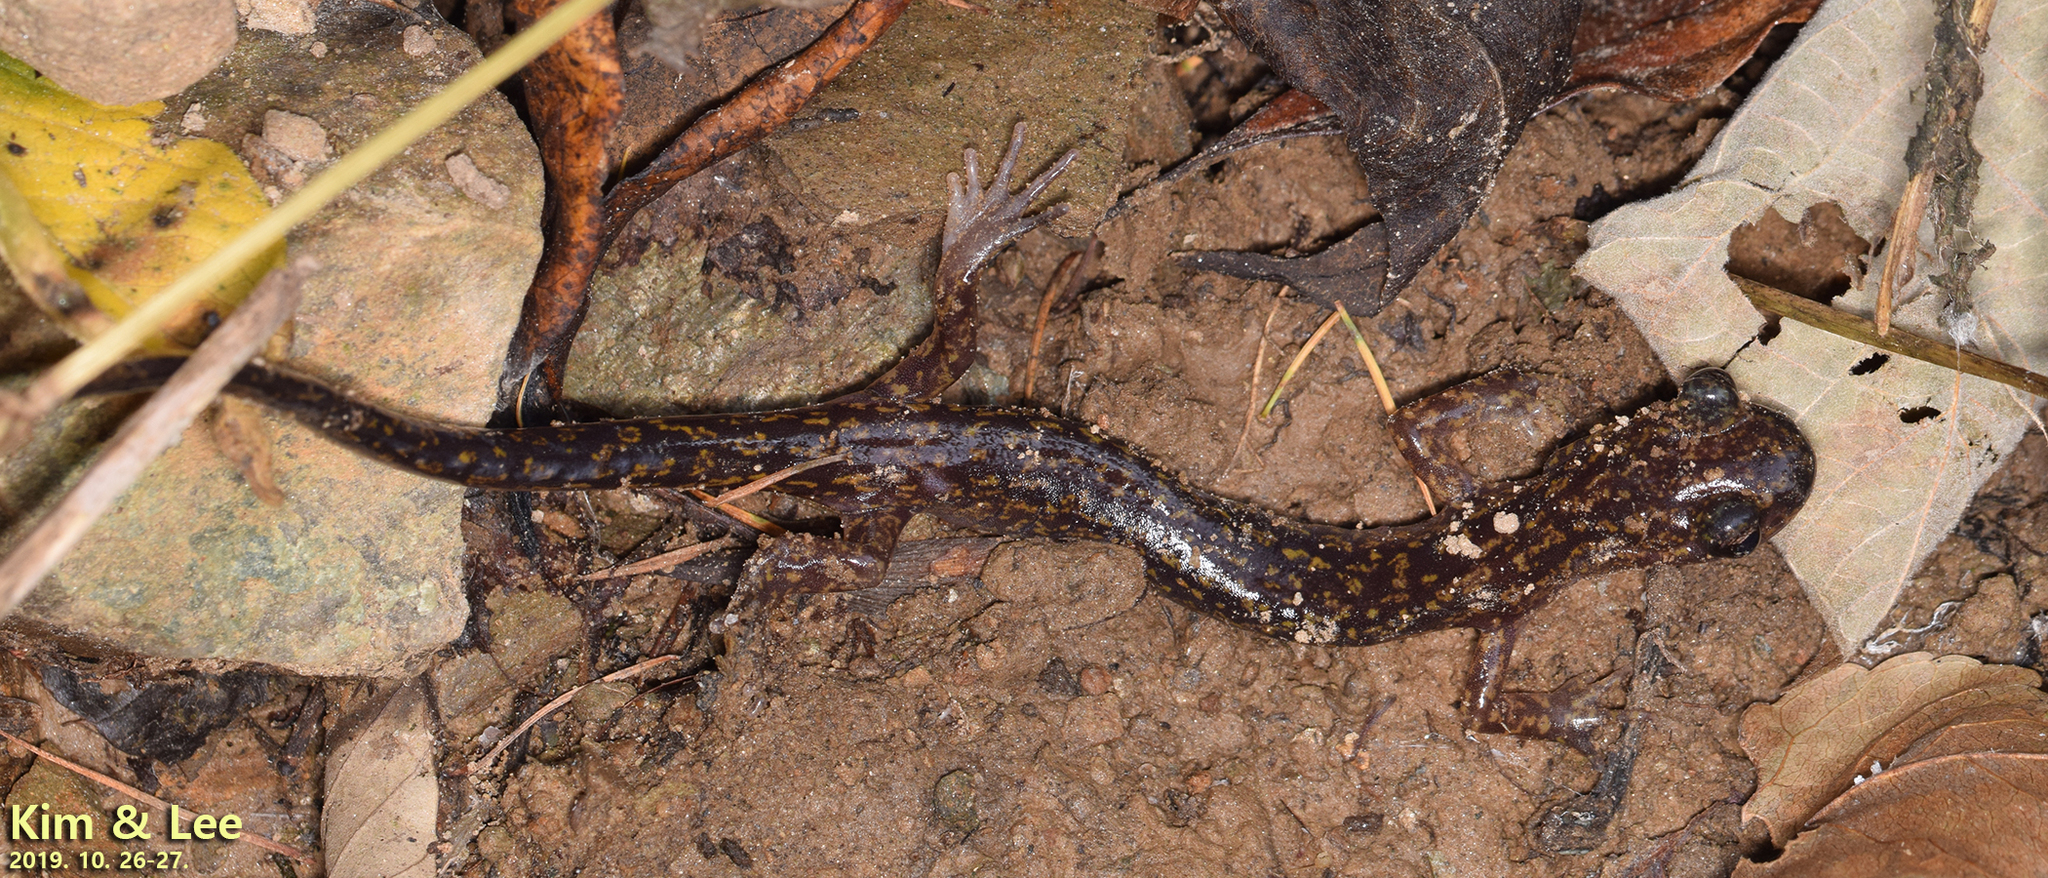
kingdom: Animalia
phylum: Chordata
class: Amphibia
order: Caudata
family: Hynobiidae
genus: Onychodactylus
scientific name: Onychodactylus koreanus
